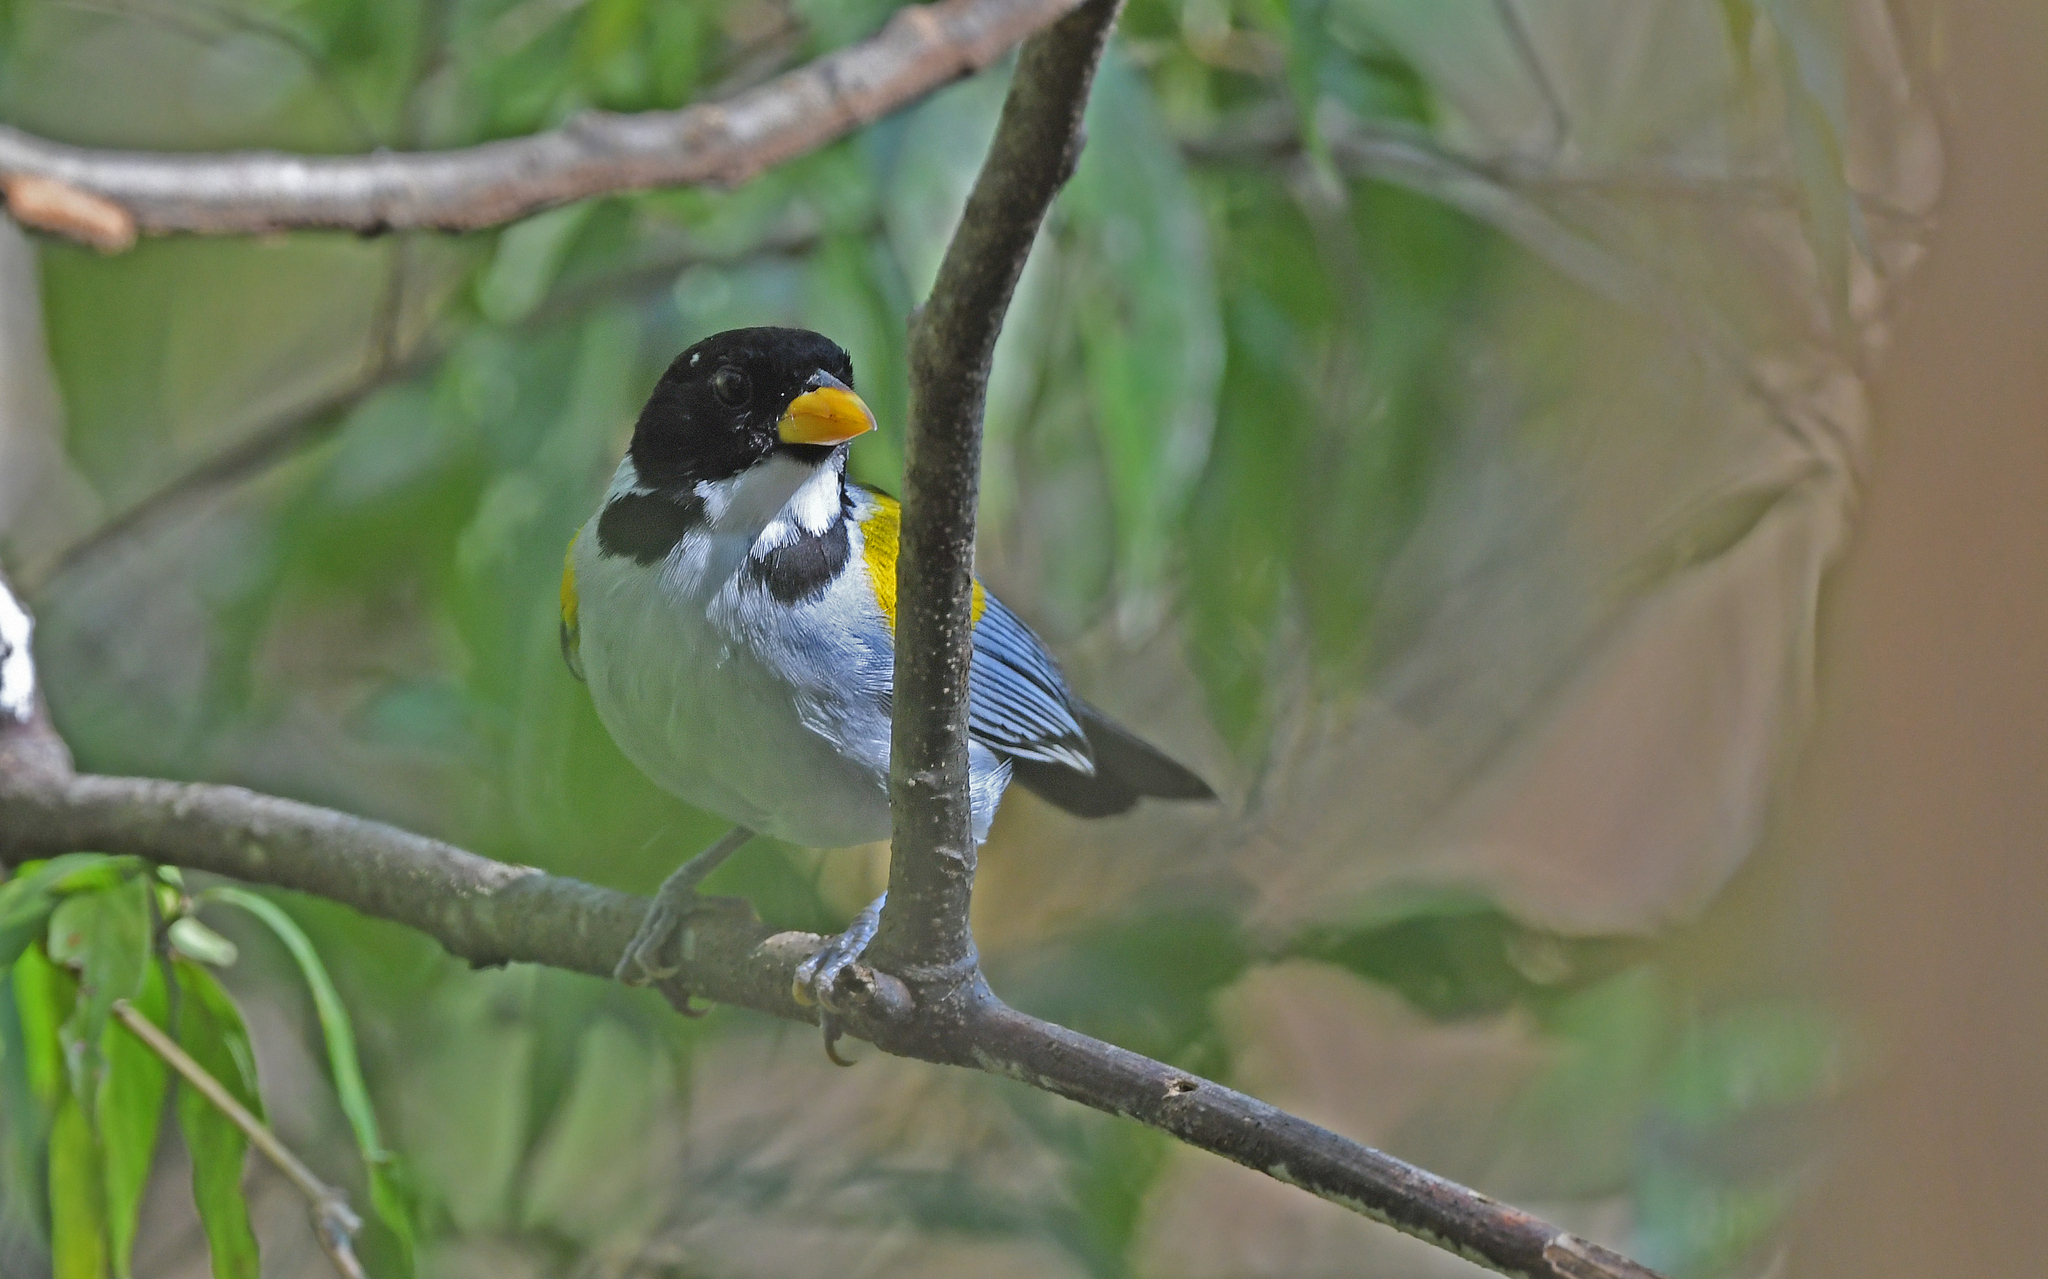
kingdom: Animalia
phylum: Chordata
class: Aves
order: Passeriformes
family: Passerellidae
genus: Arremon
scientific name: Arremon schlegeli
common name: Golden-winged sparrow
